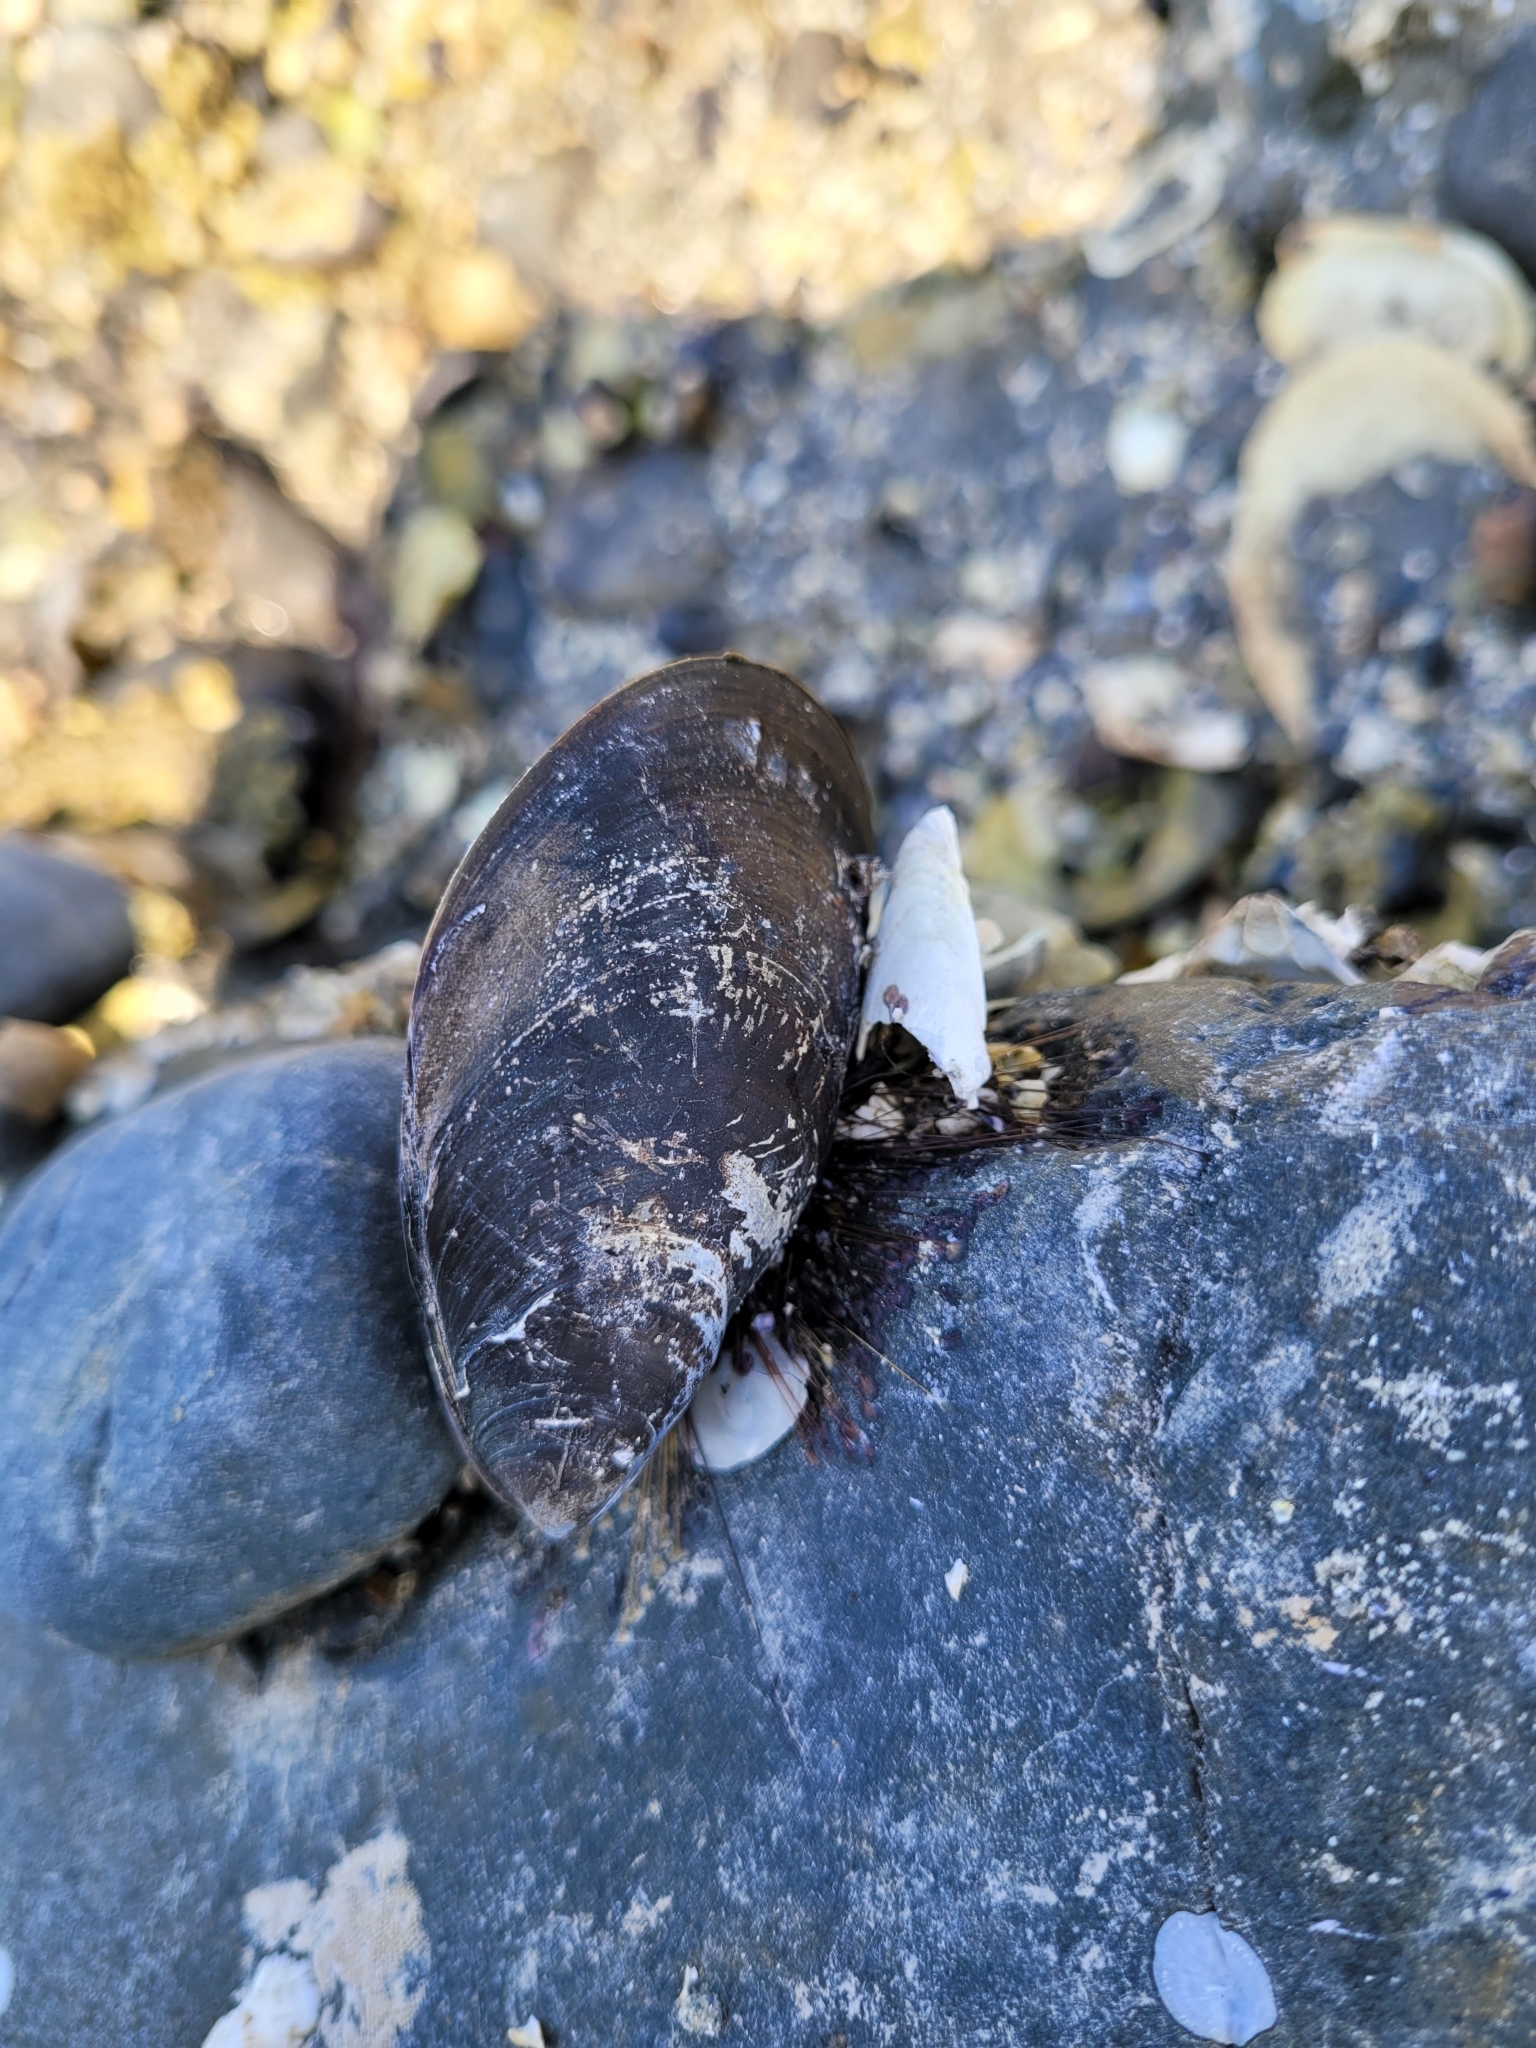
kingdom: Animalia
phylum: Mollusca
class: Bivalvia
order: Mytilida
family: Mytilidae
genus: Mytilus
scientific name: Mytilus edulis
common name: Blue mussel
